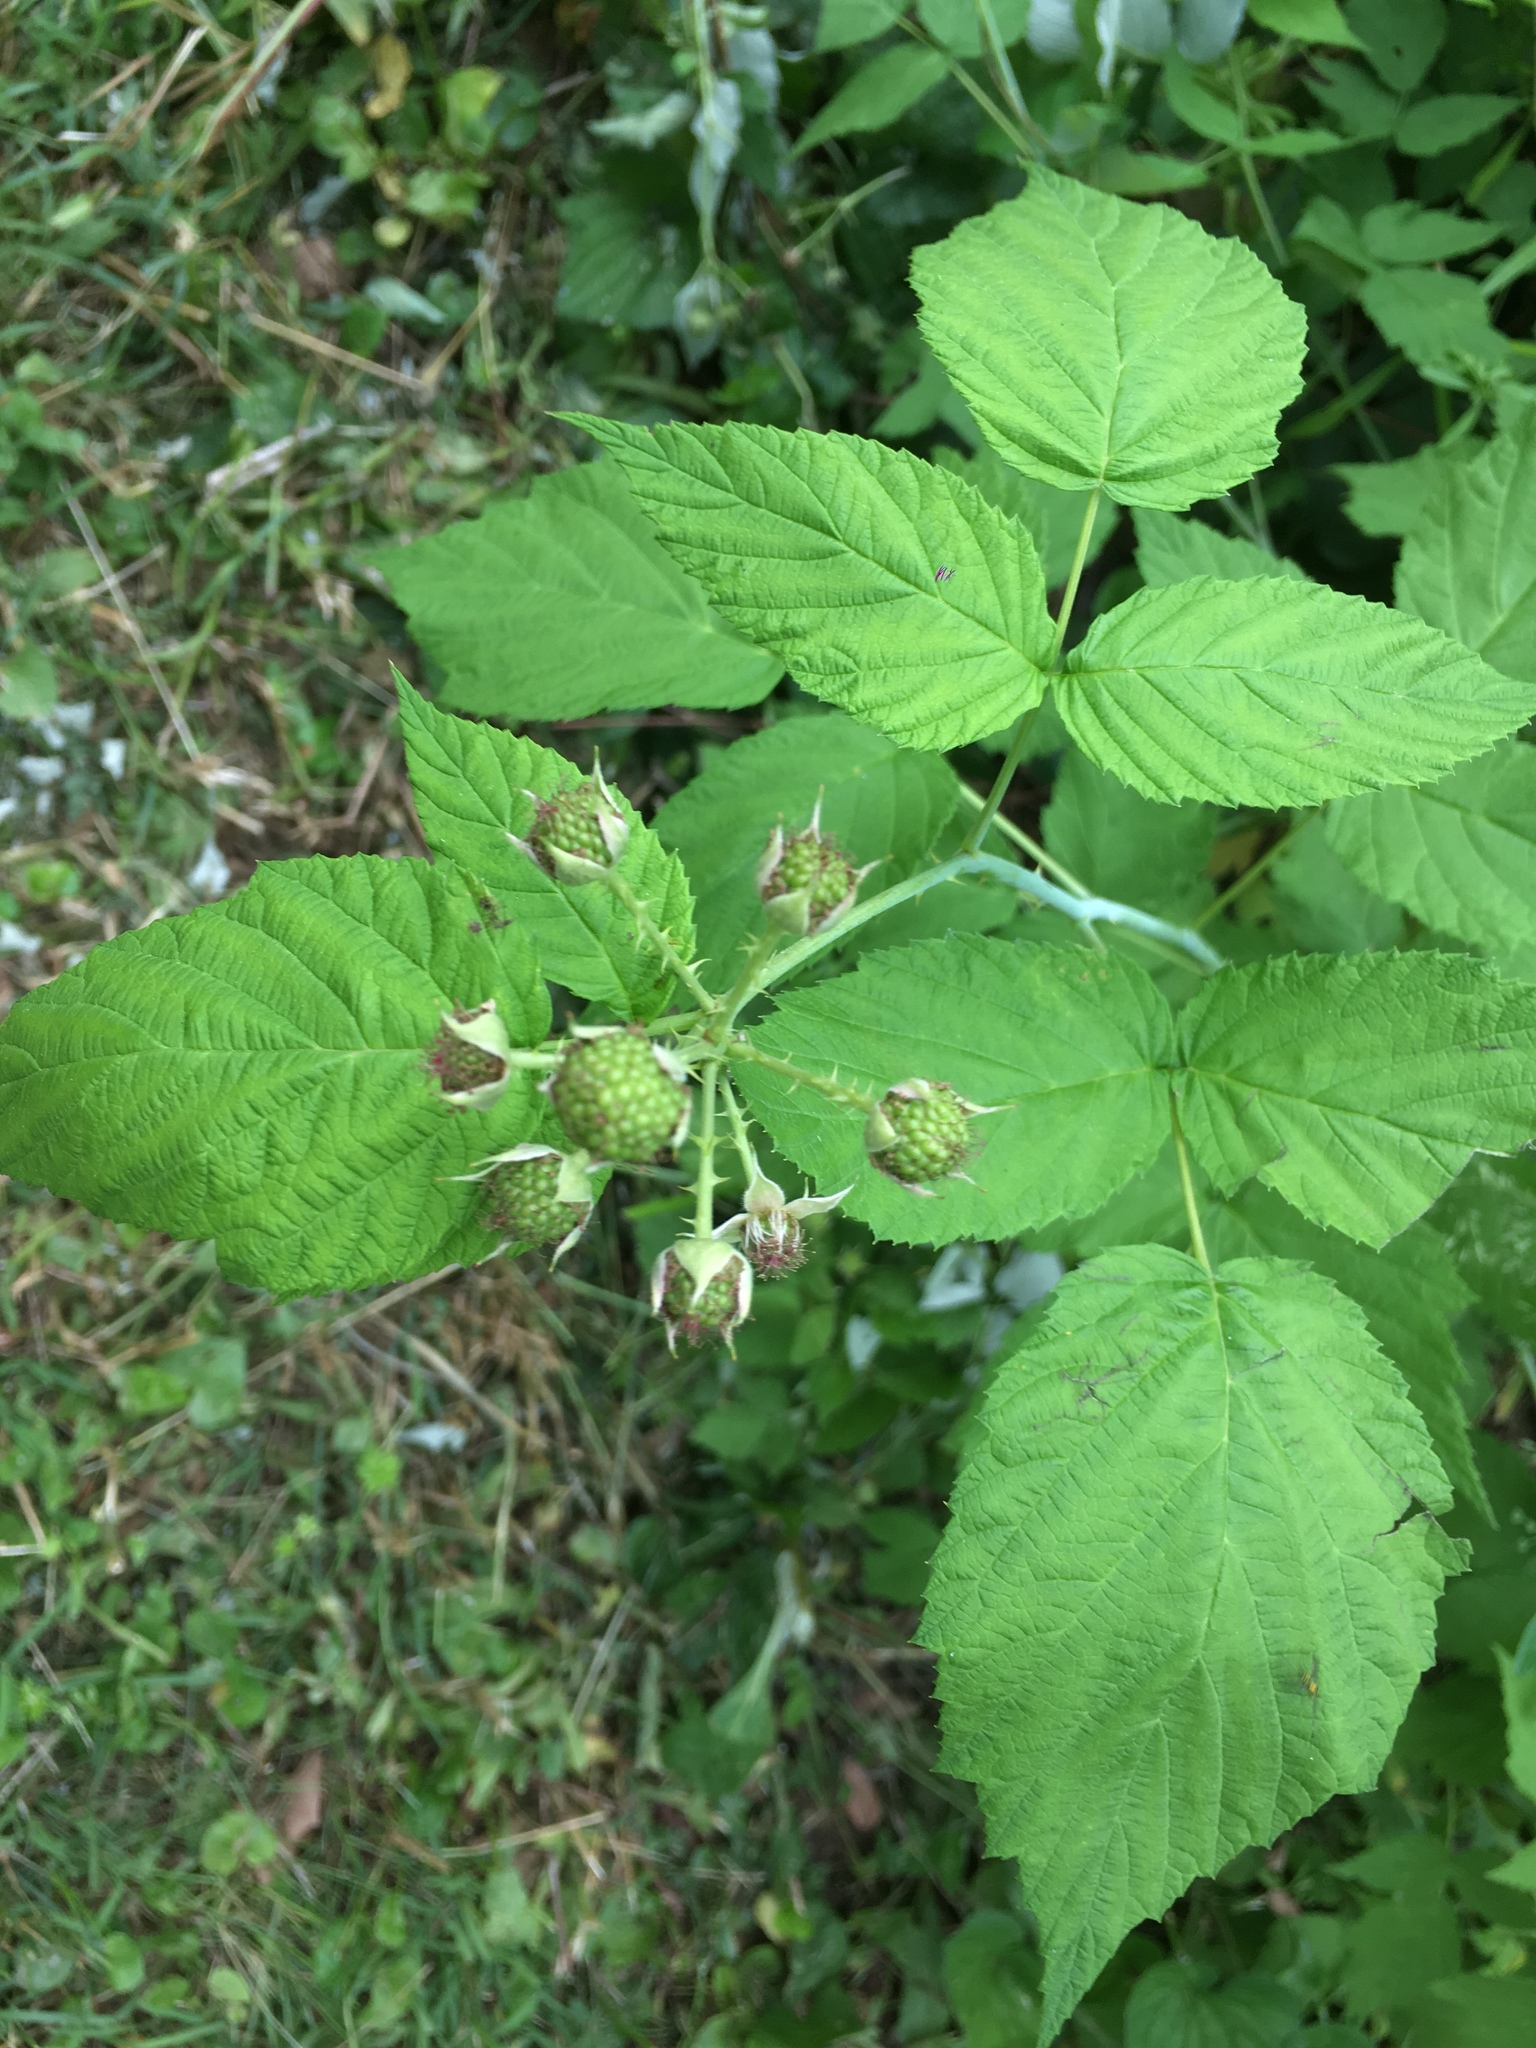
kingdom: Plantae
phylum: Tracheophyta
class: Magnoliopsida
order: Rosales
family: Rosaceae
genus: Rubus
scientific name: Rubus occidentalis
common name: Black raspberry
